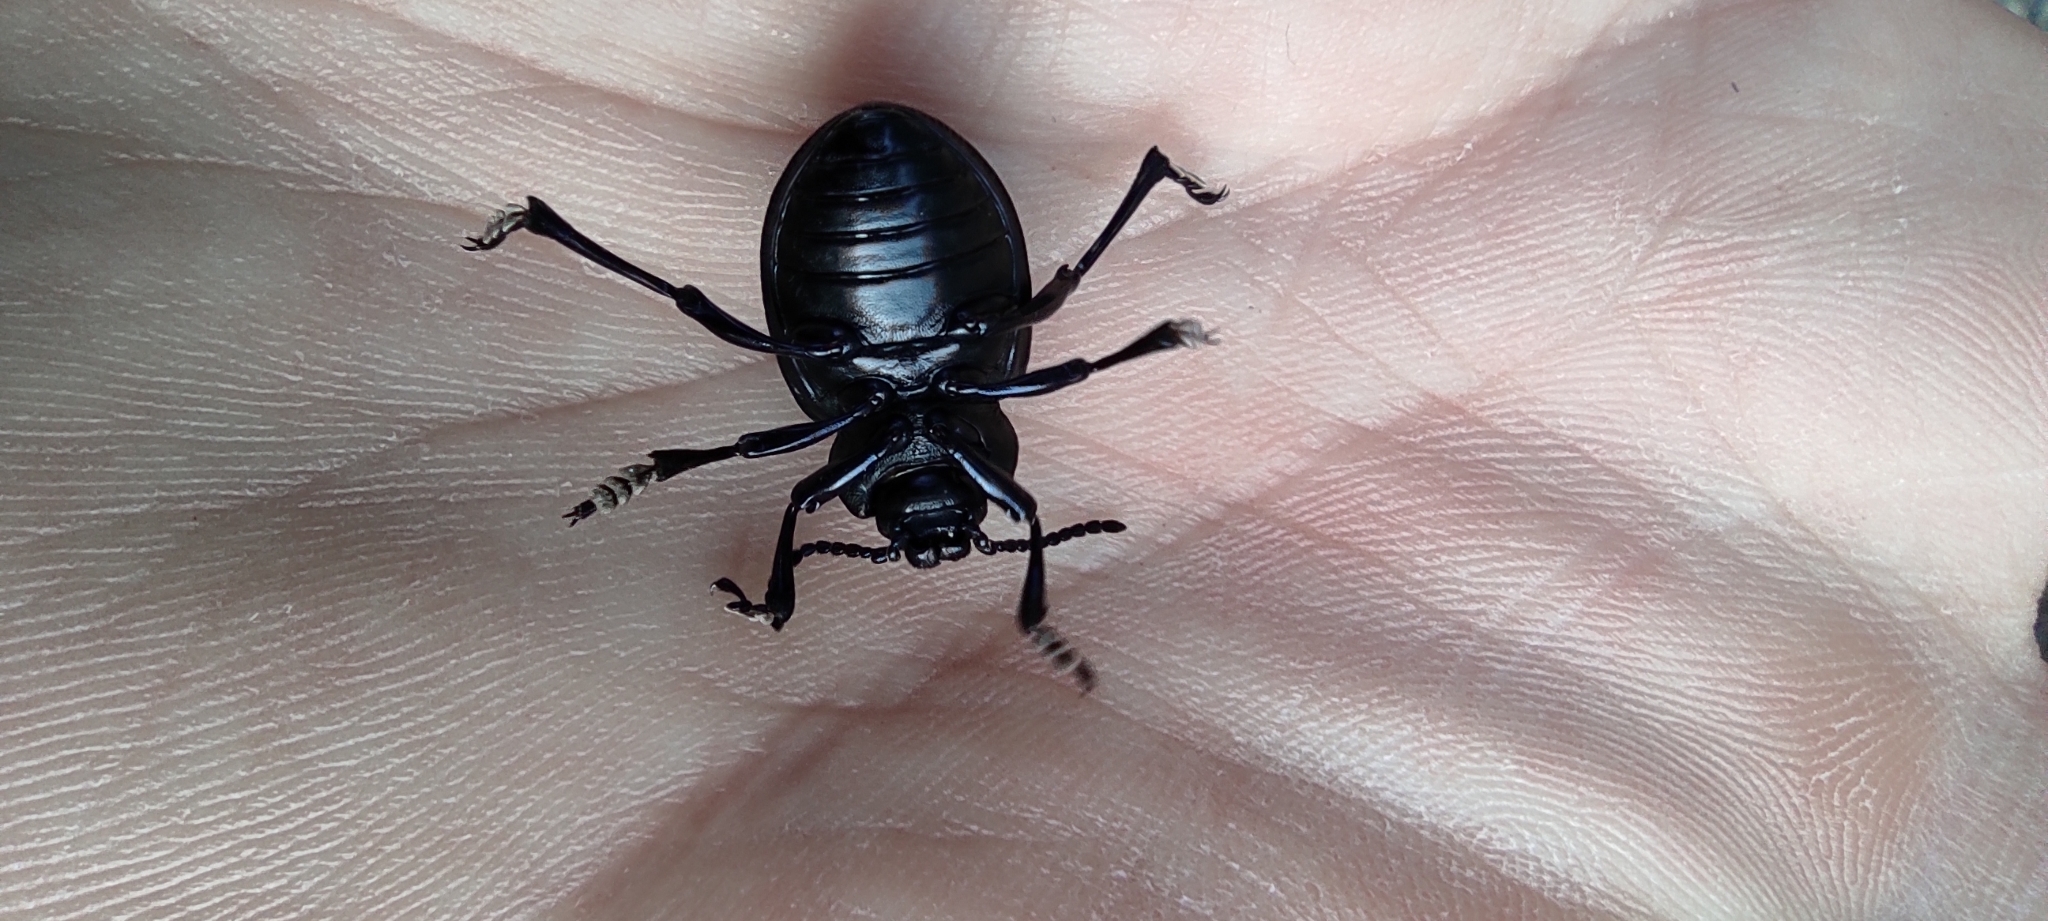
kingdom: Animalia
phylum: Arthropoda
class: Insecta
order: Coleoptera
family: Chrysomelidae
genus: Timarcha
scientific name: Timarcha tenebricosa
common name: Bloody-nosed beetle
